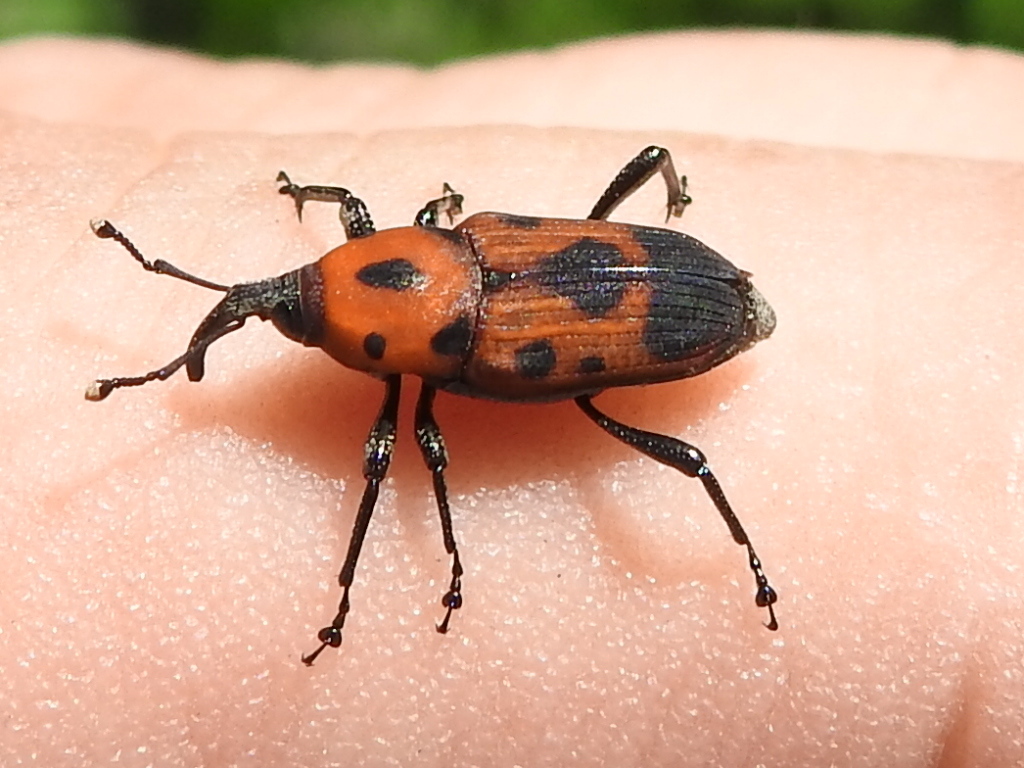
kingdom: Animalia
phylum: Arthropoda
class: Insecta
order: Coleoptera
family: Dryophthoridae
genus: Rhodobaenus
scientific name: Rhodobaenus quinquepunctatus
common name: Cocklebur weevil
